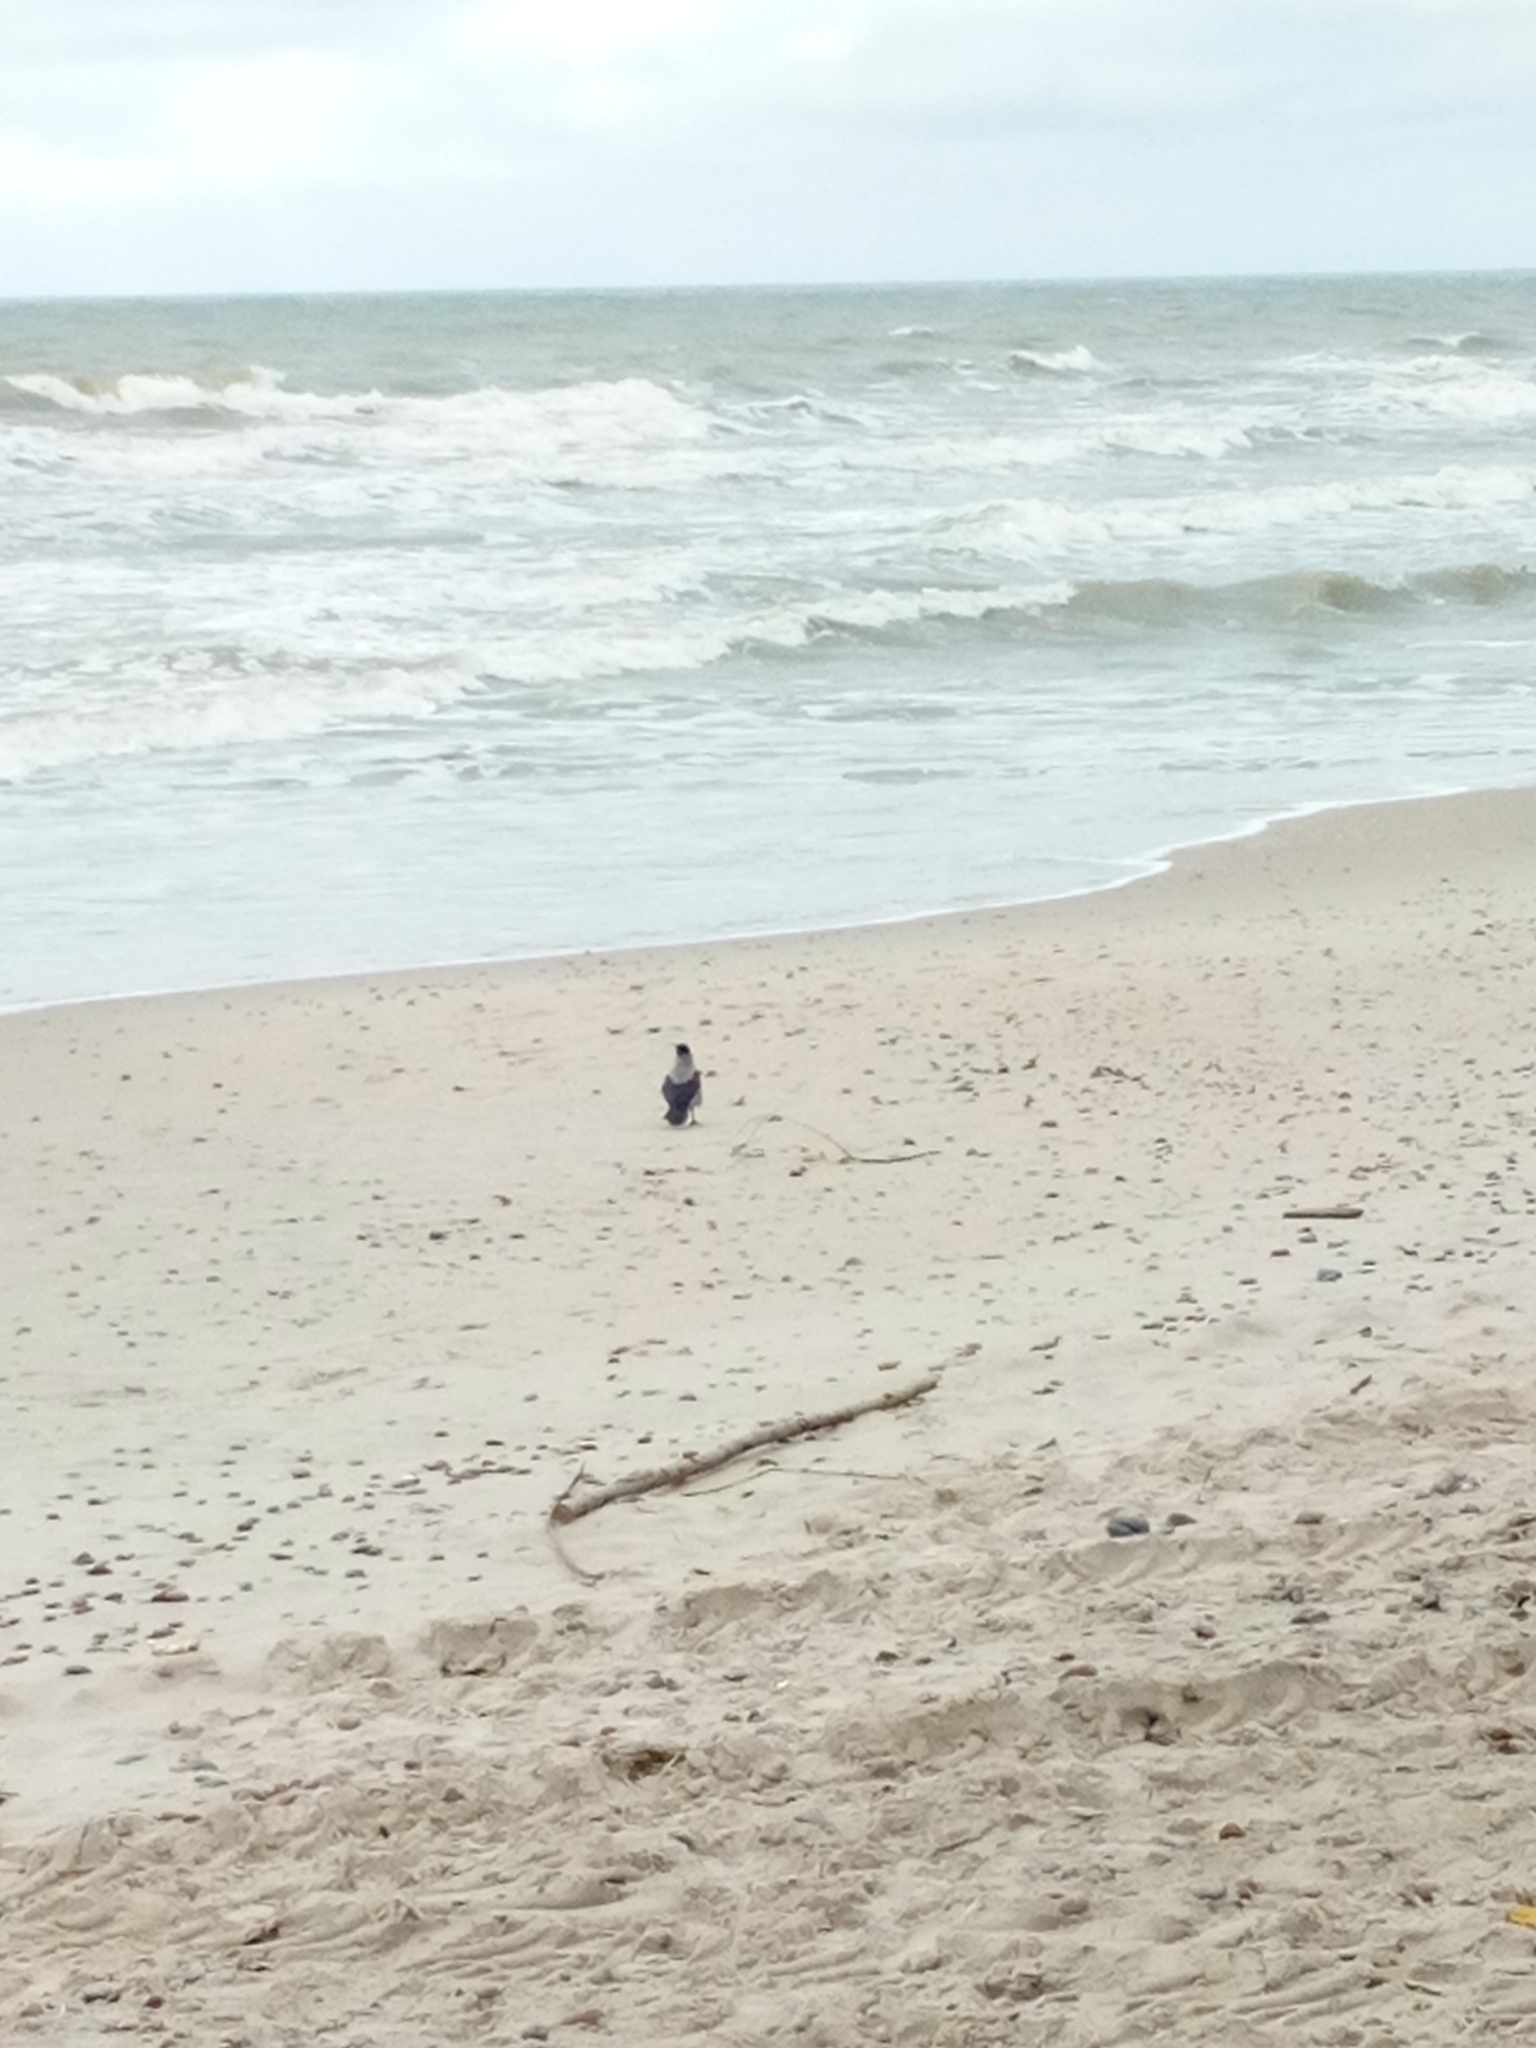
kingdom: Animalia
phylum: Chordata
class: Aves
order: Passeriformes
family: Corvidae
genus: Corvus
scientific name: Corvus cornix
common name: Hooded crow
